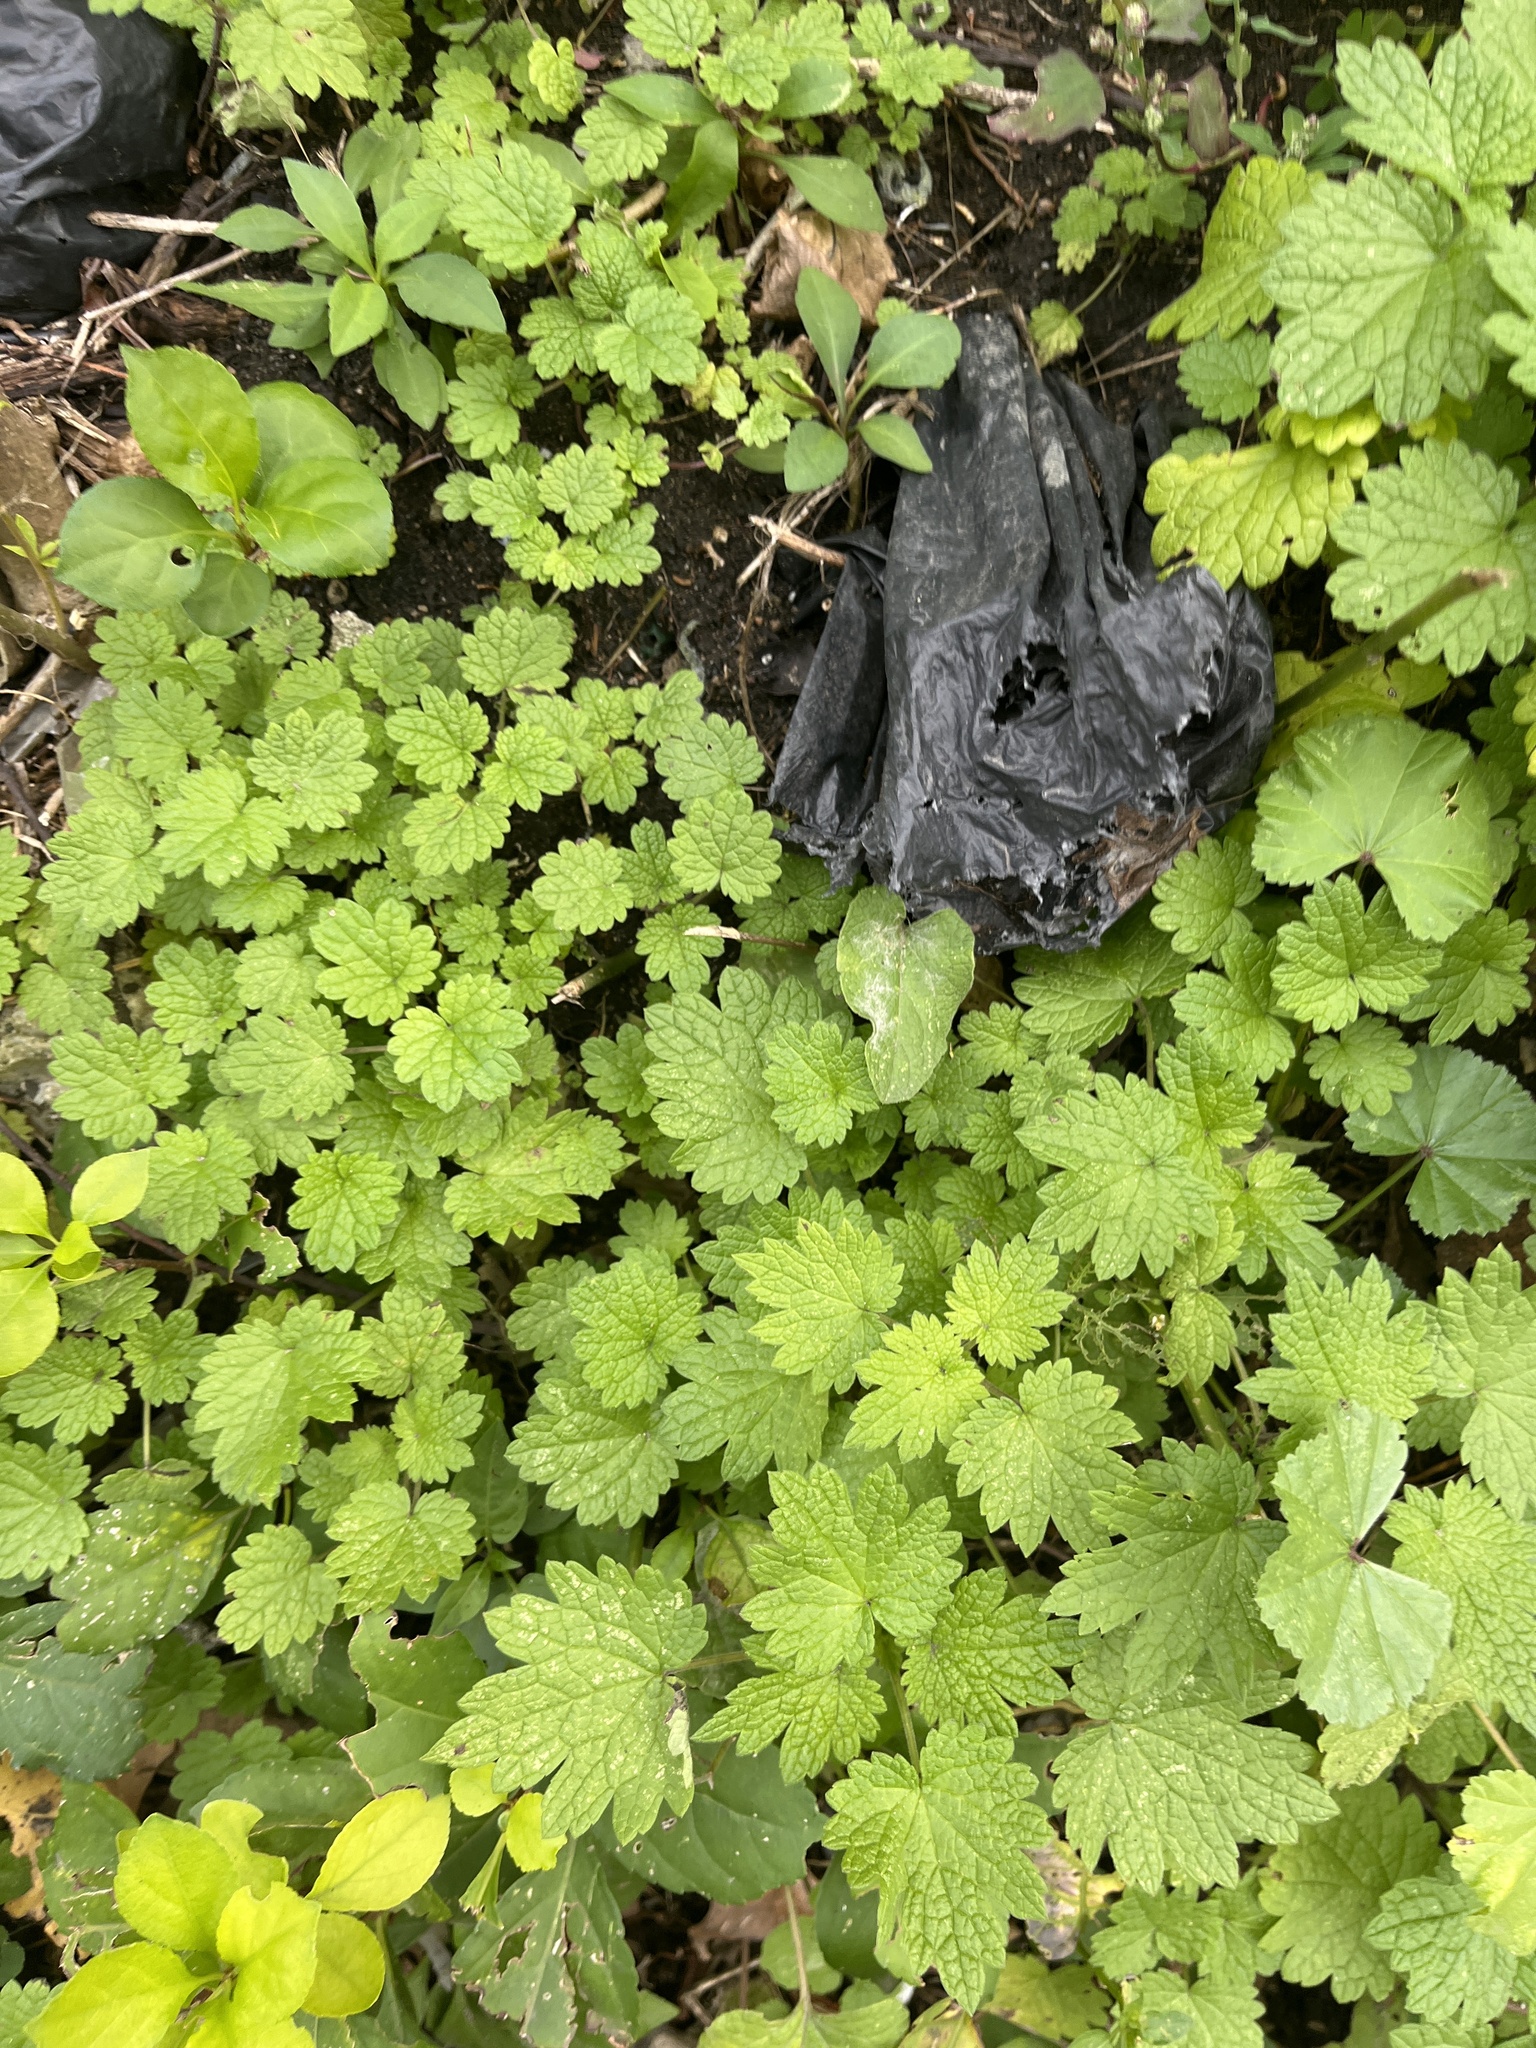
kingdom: Plantae
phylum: Tracheophyta
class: Magnoliopsida
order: Lamiales
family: Lamiaceae
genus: Leonurus
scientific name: Leonurus cardiaca
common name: Motherwort
